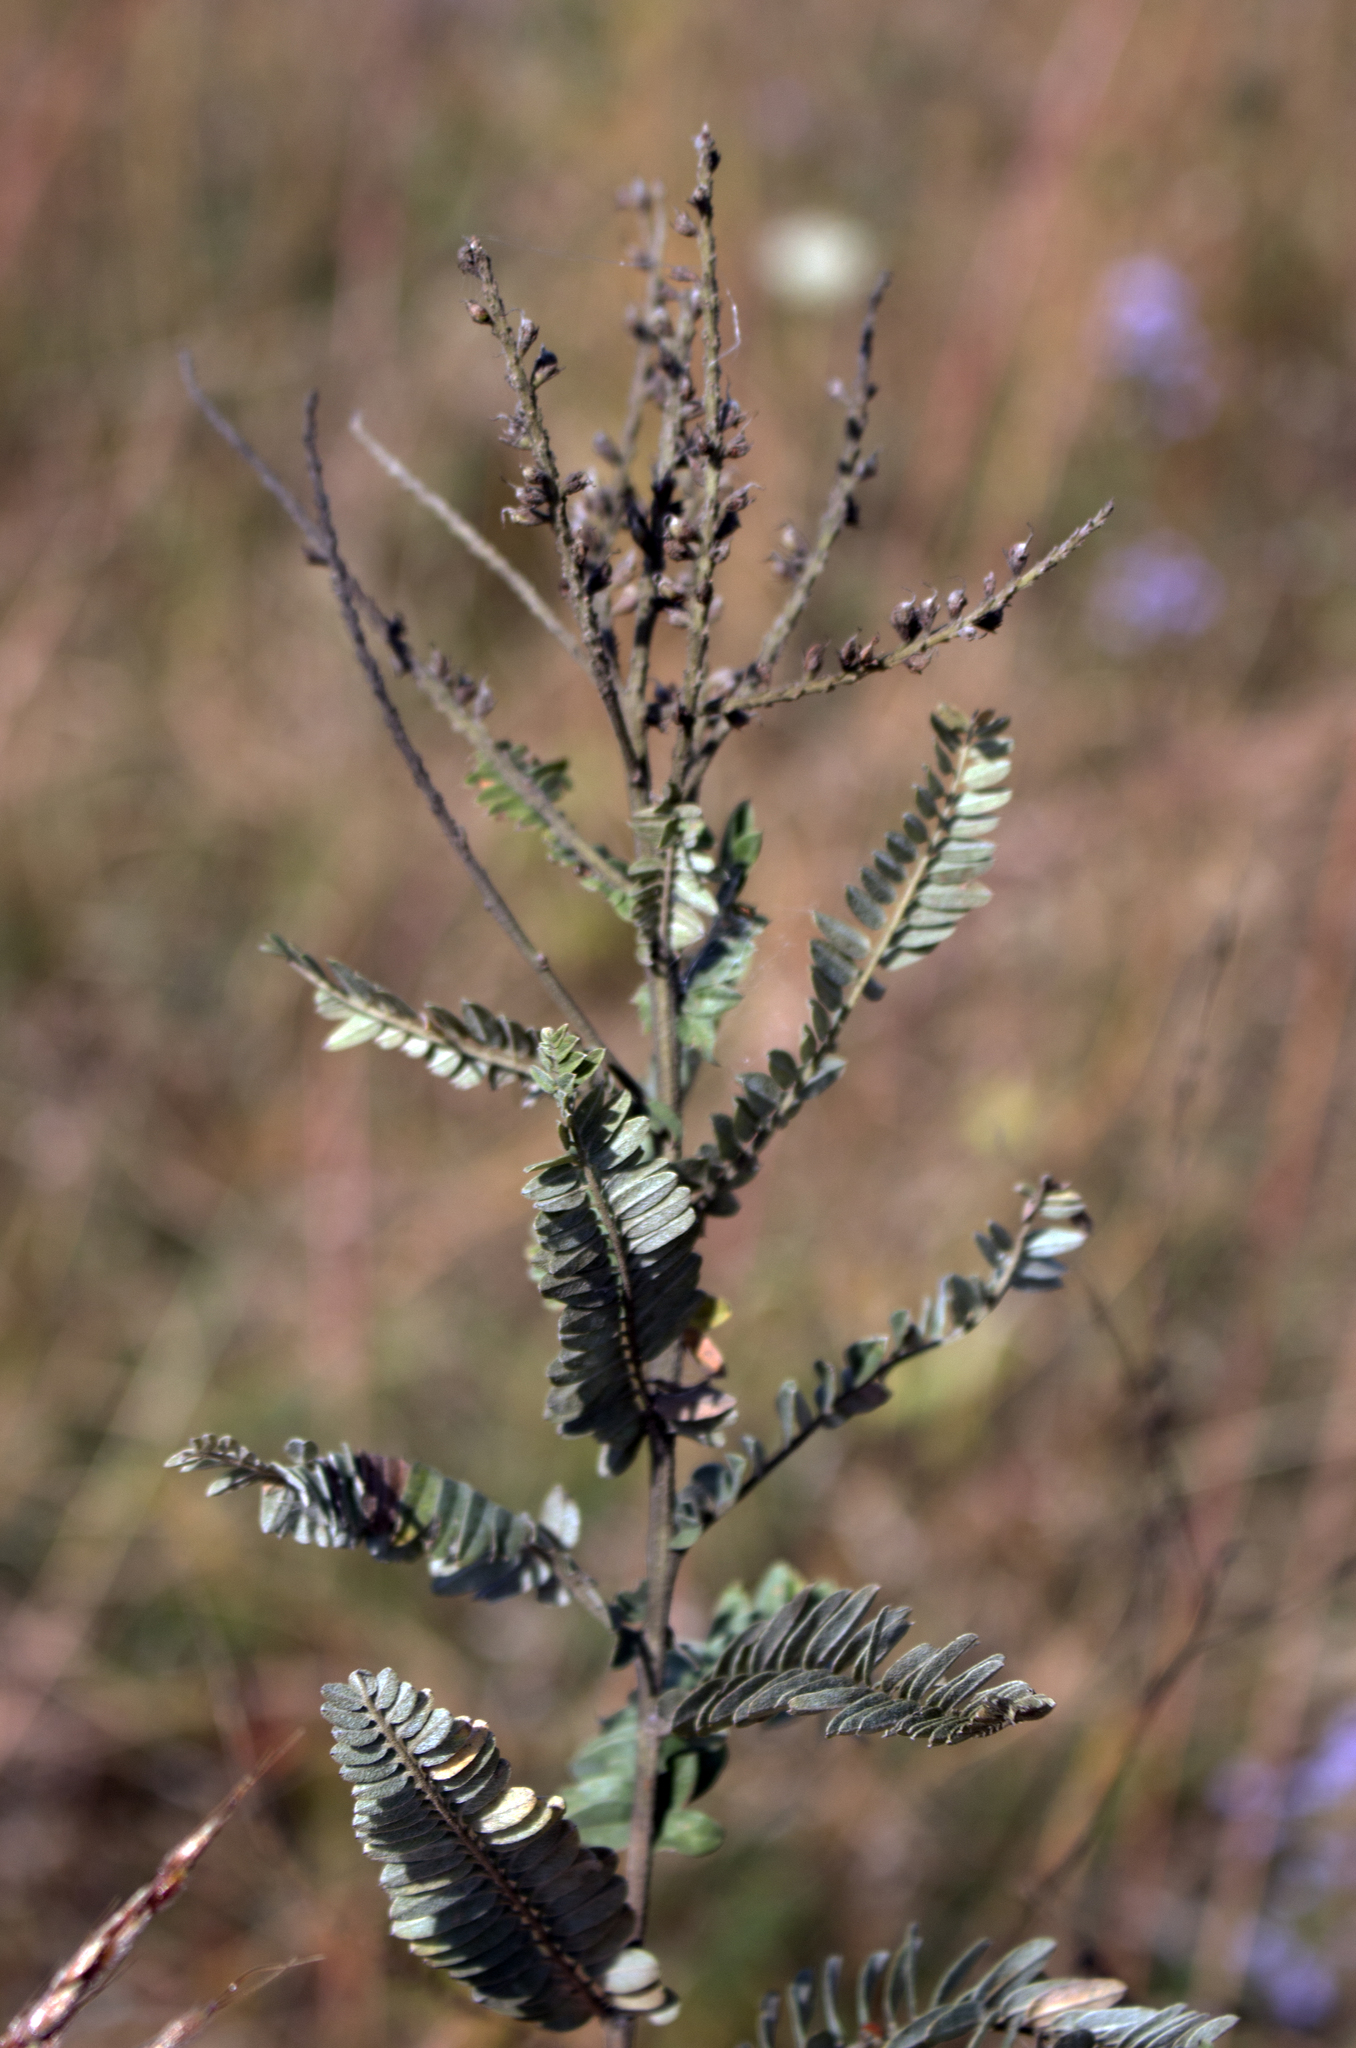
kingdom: Plantae
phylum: Tracheophyta
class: Magnoliopsida
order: Fabales
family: Fabaceae
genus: Amorpha
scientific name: Amorpha canescens
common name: Leadplant
